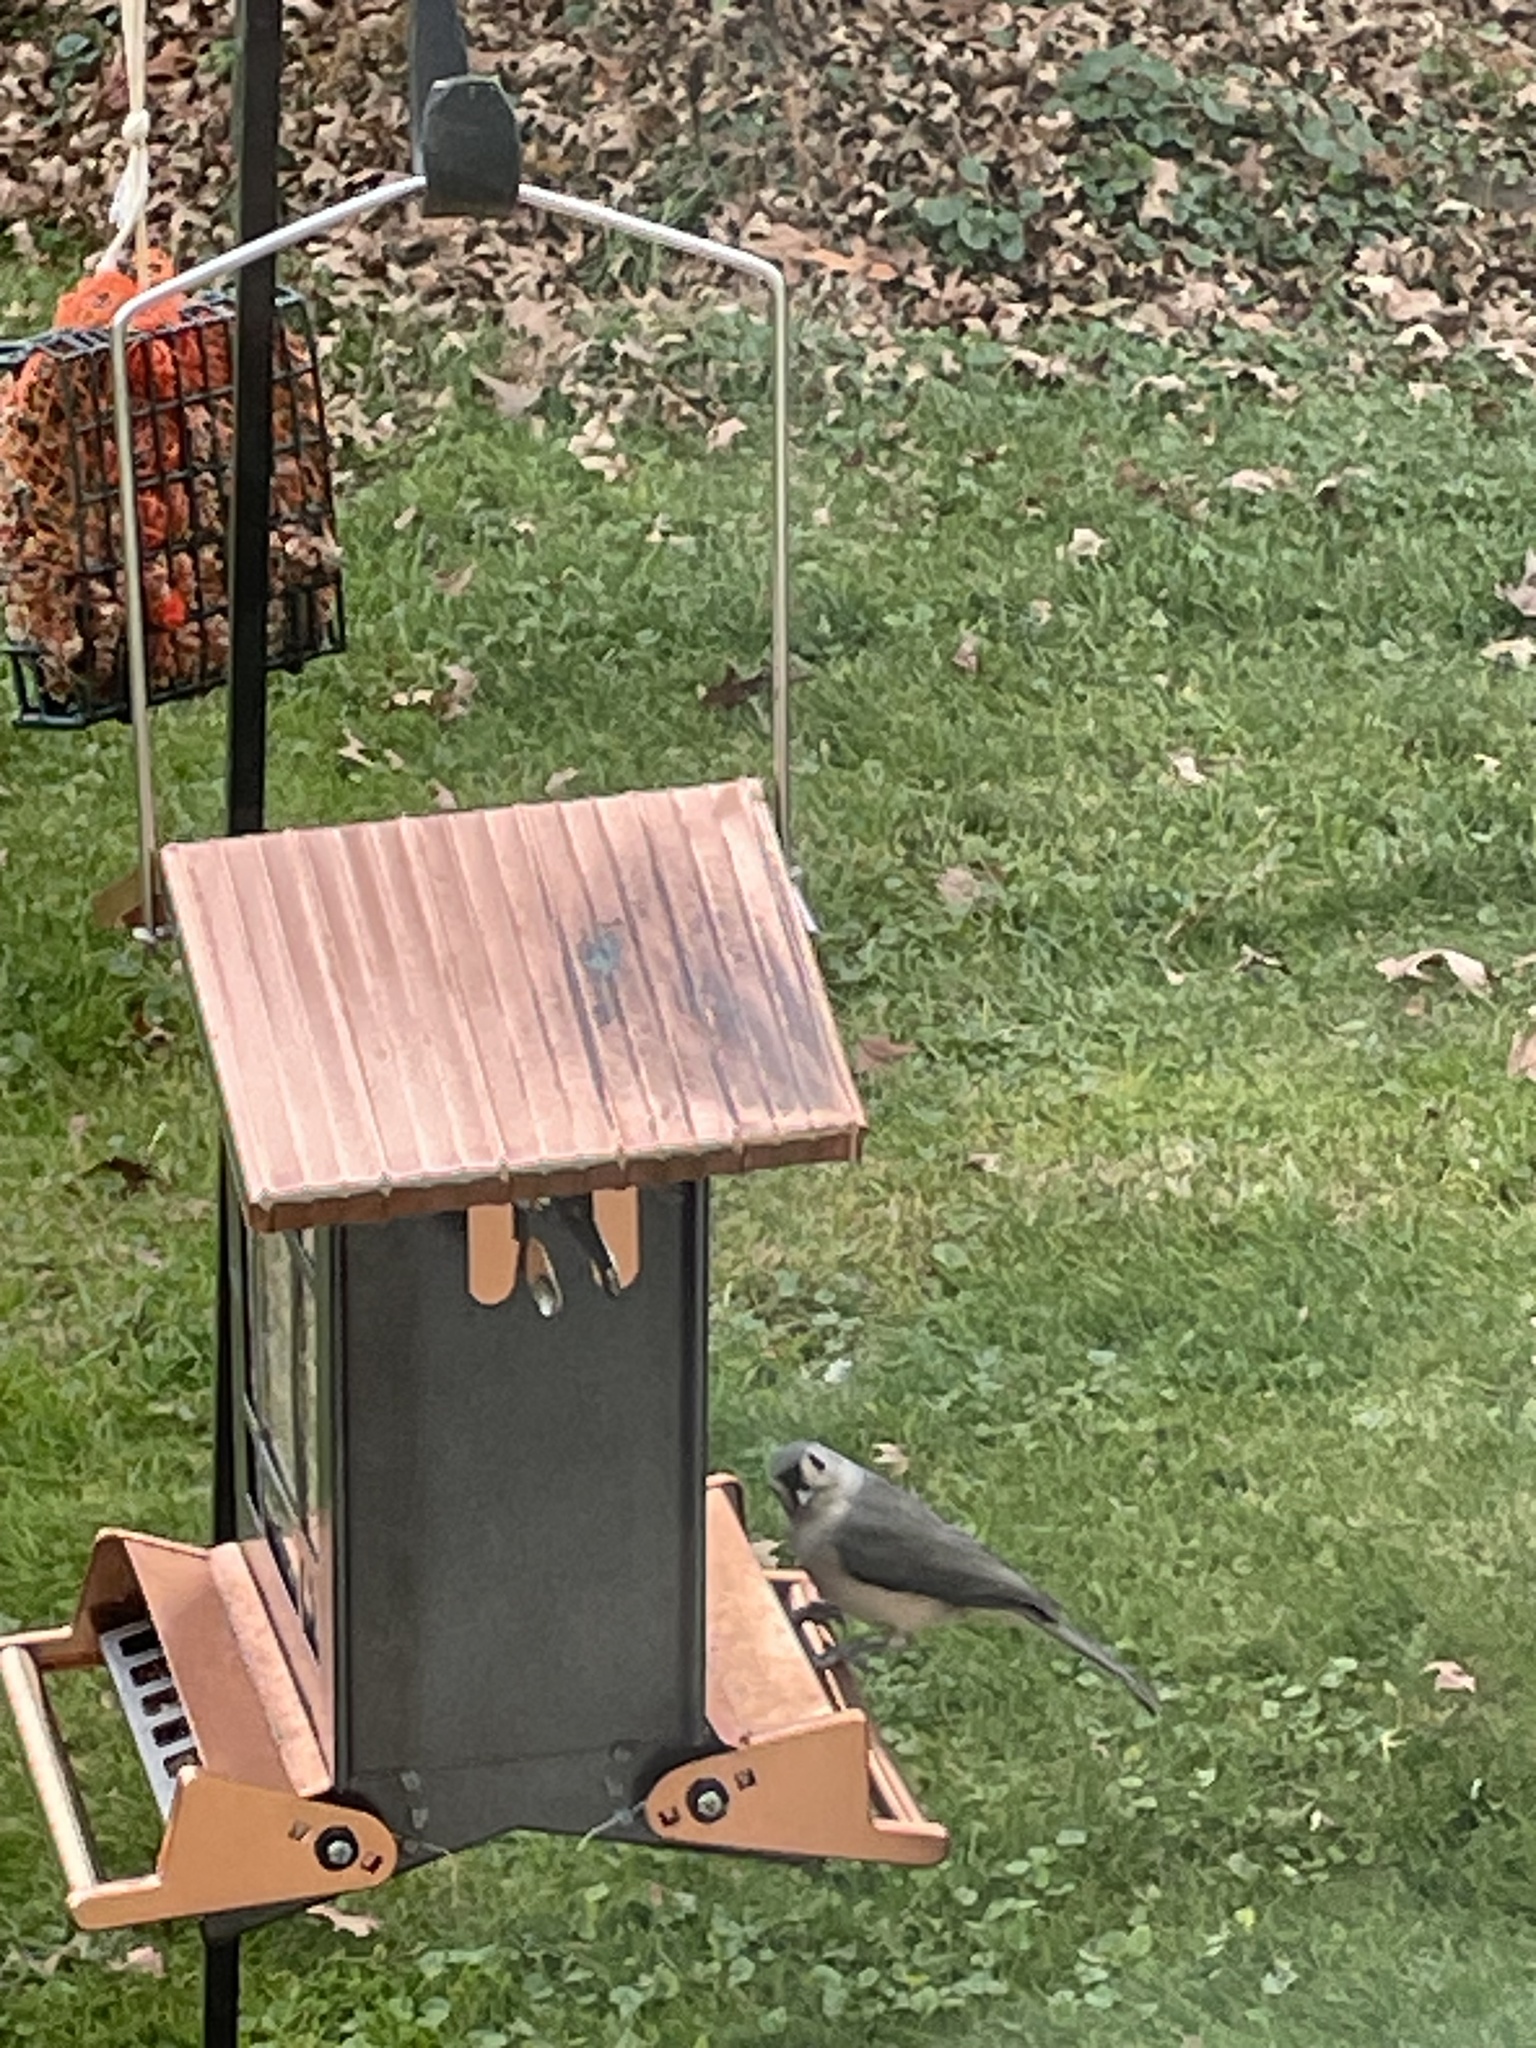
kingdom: Animalia
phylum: Chordata
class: Aves
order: Passeriformes
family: Paridae
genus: Baeolophus
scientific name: Baeolophus bicolor
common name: Tufted titmouse
